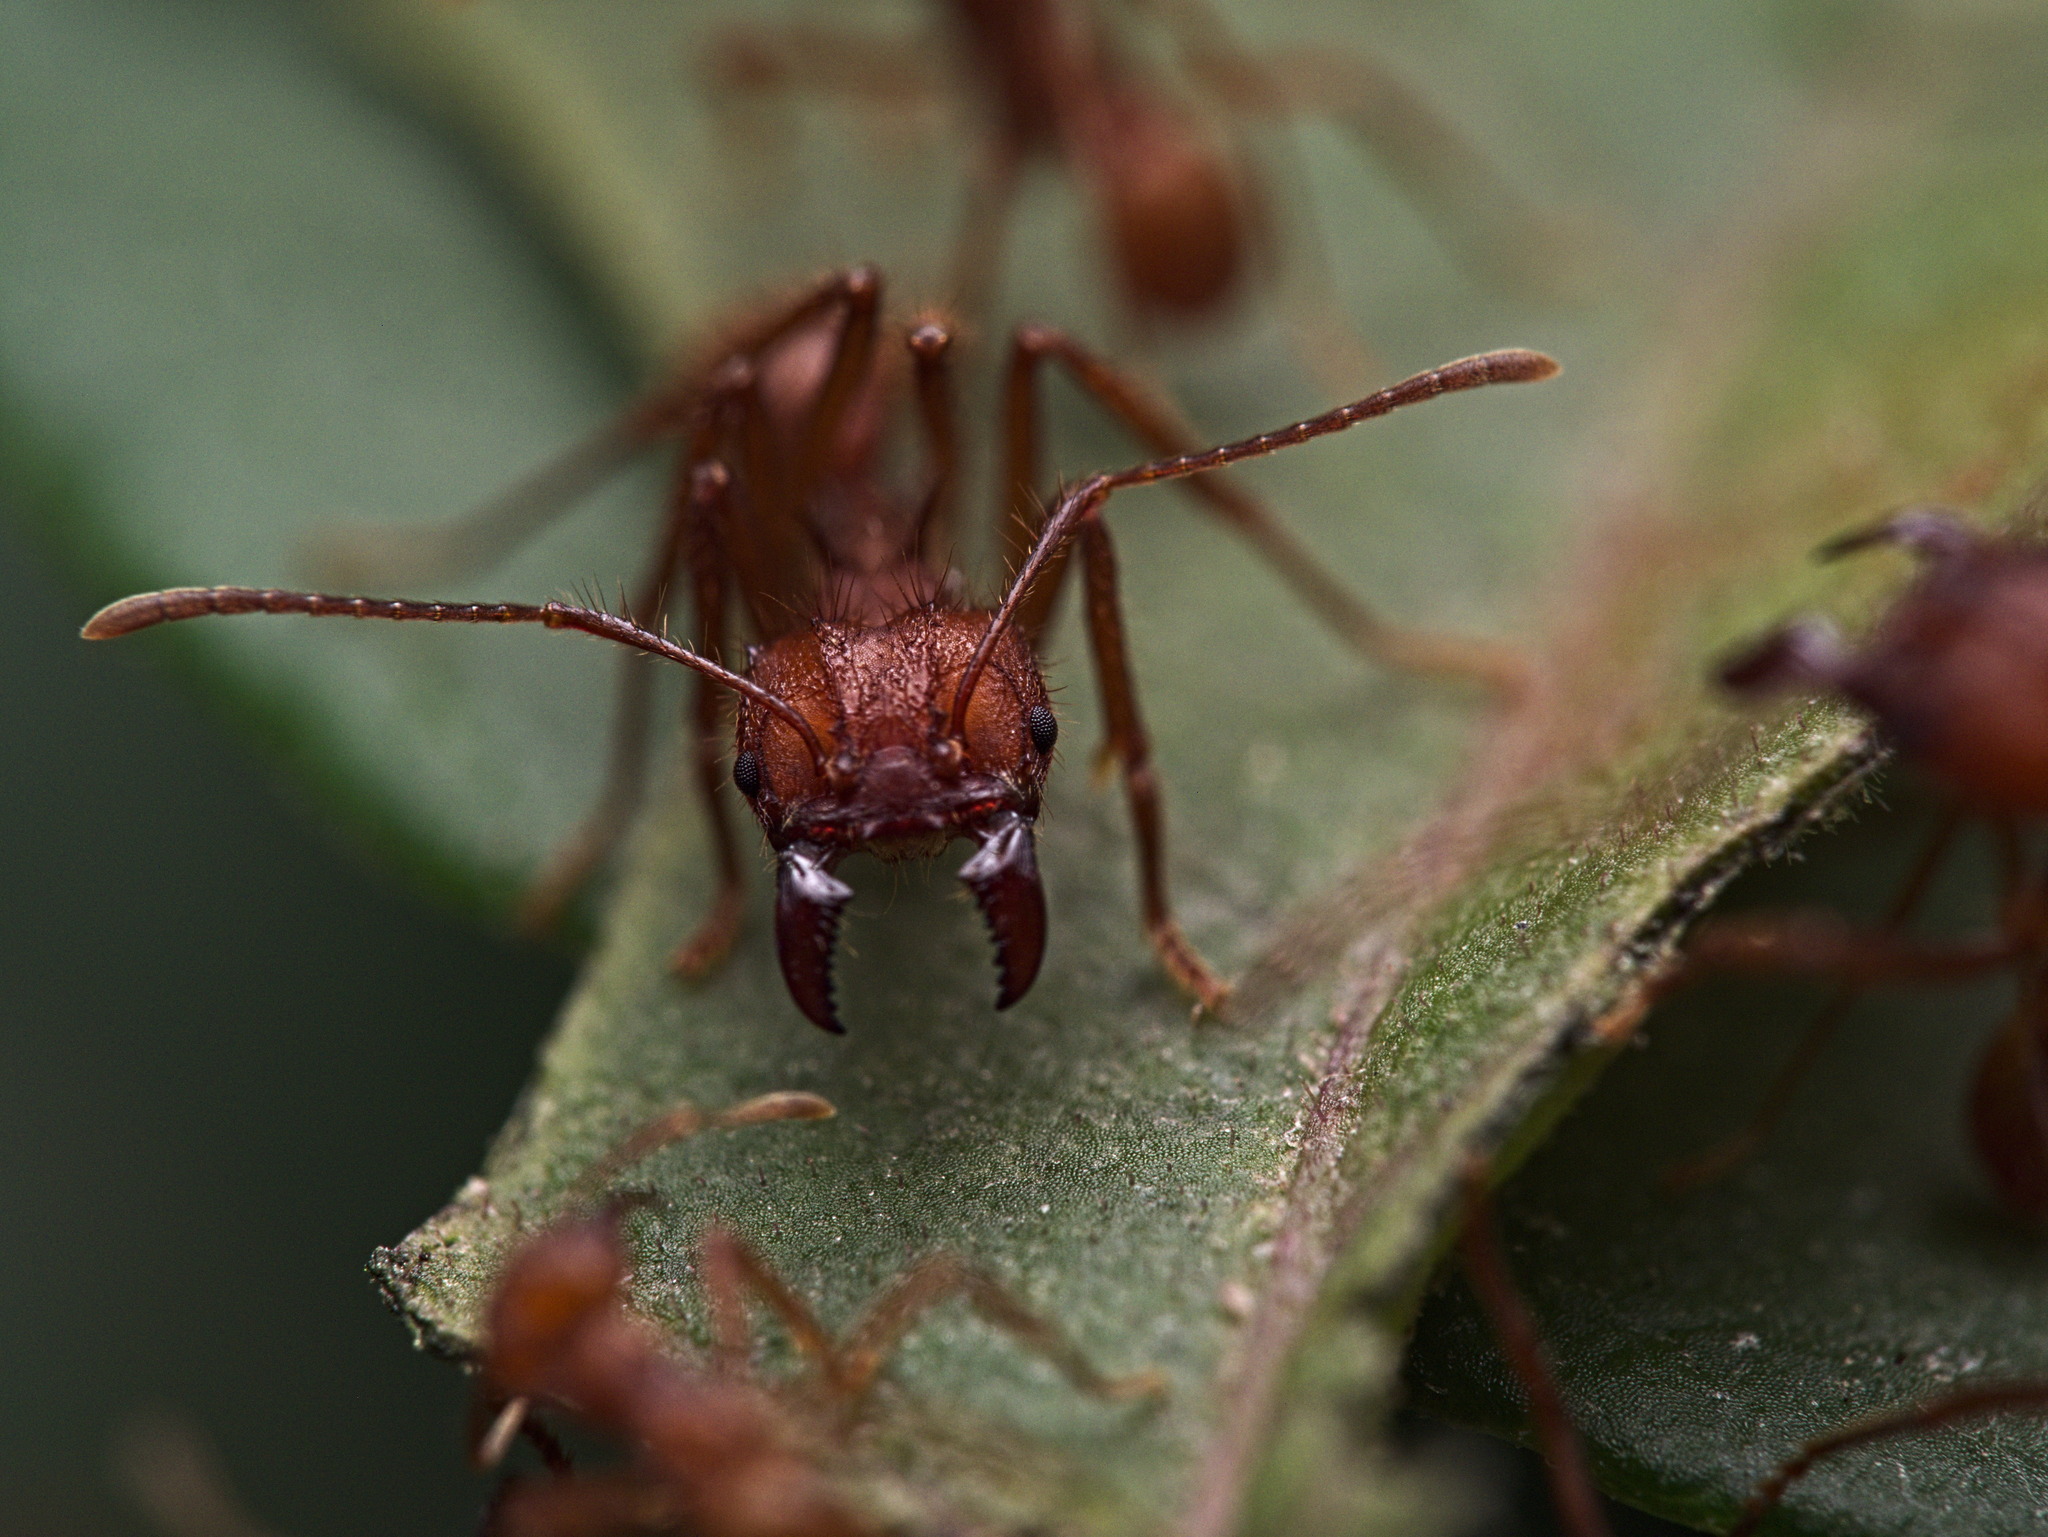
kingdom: Animalia
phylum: Arthropoda
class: Insecta
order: Hymenoptera
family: Formicidae
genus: Atta
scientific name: Atta mexicana
